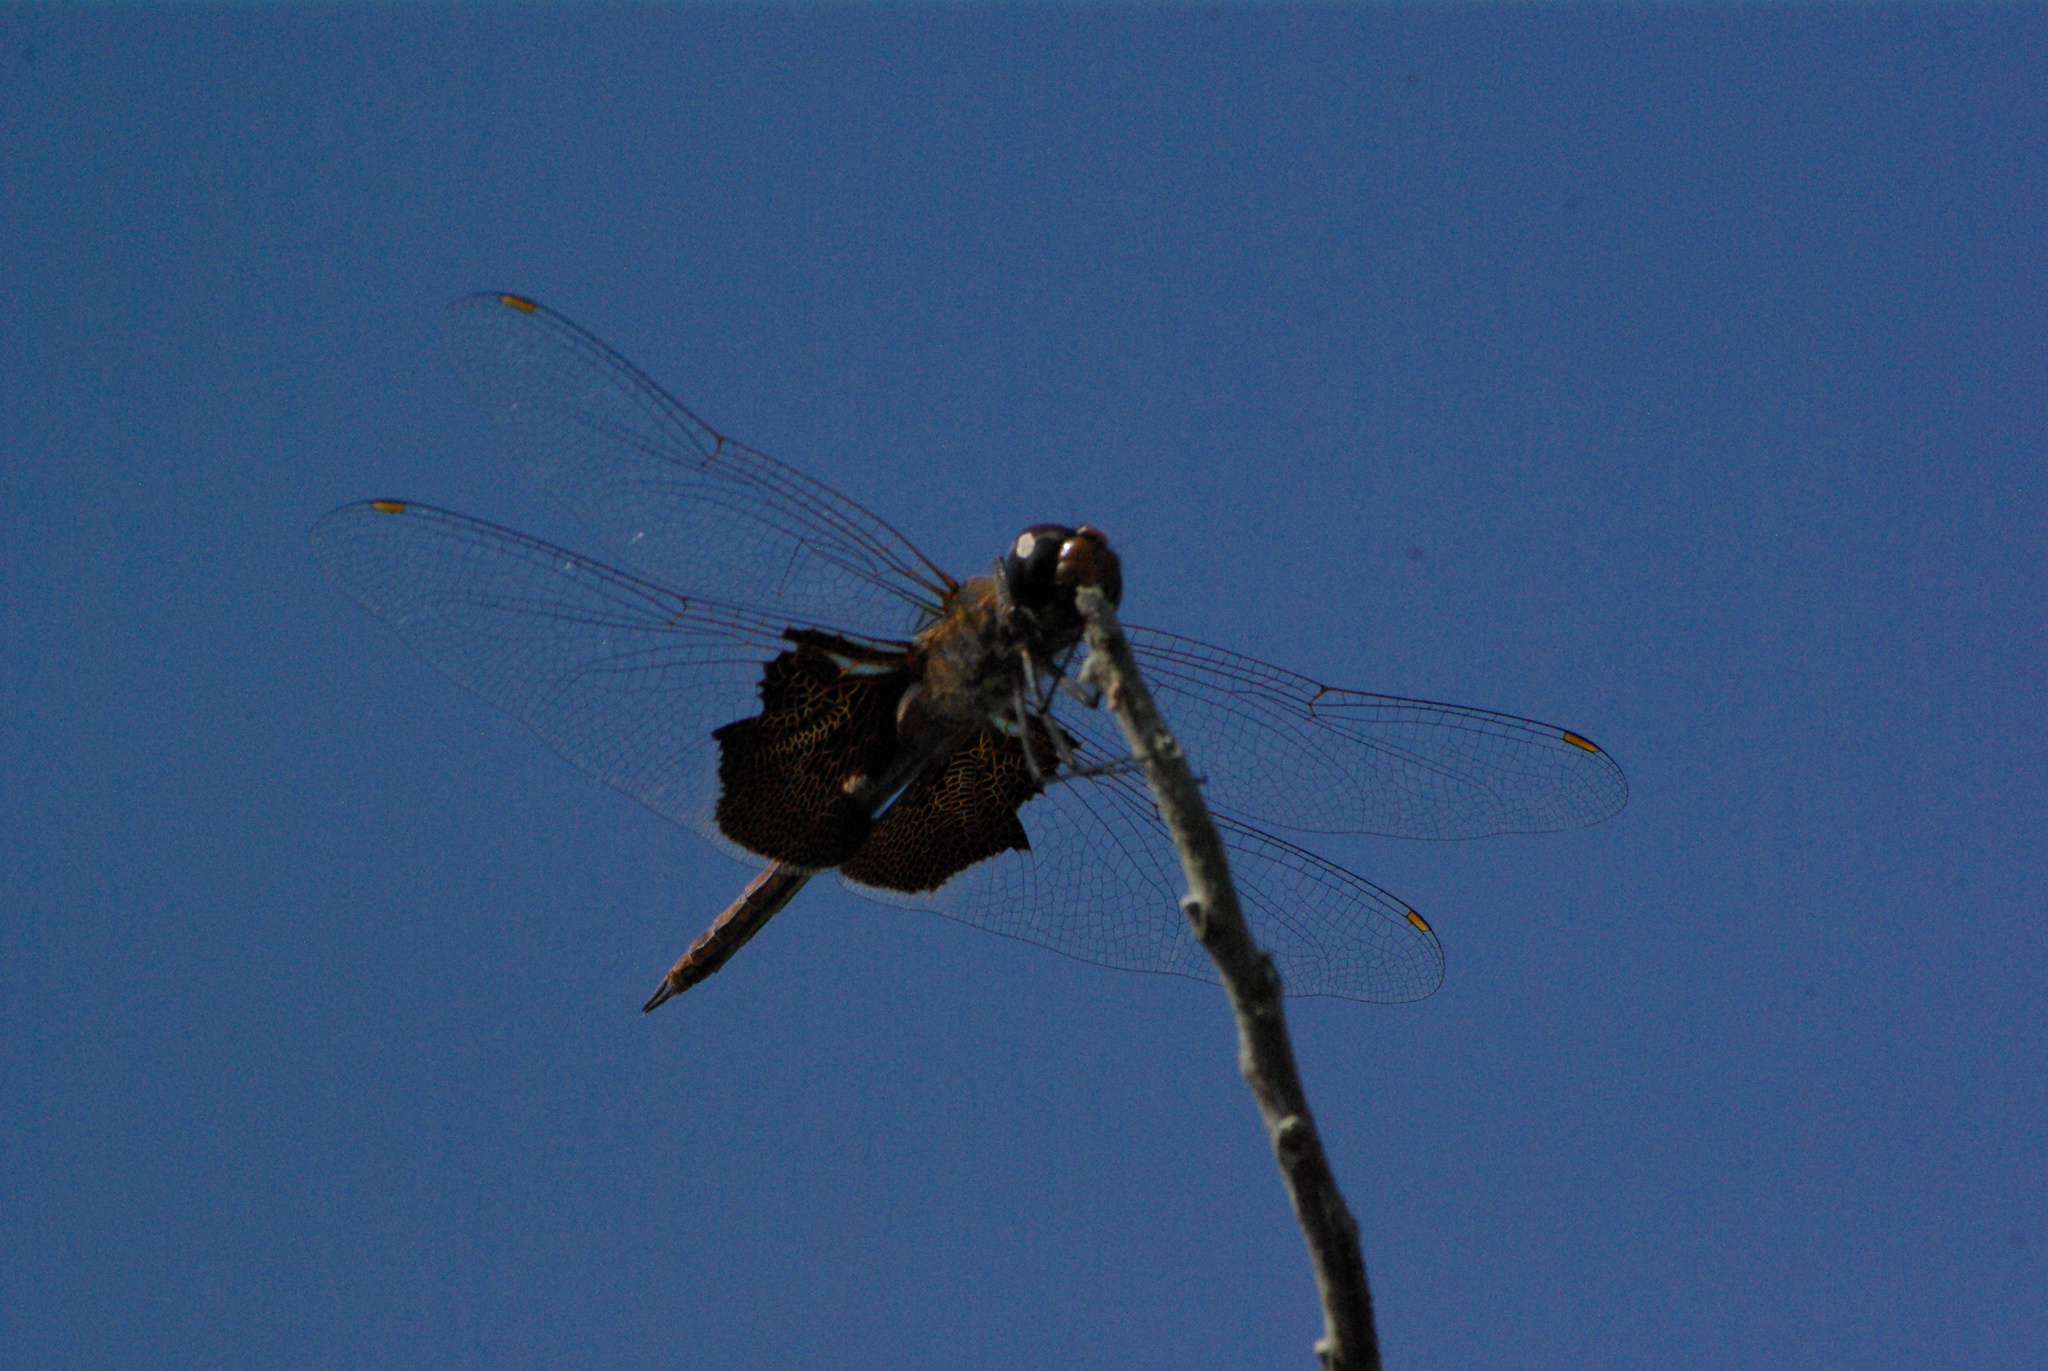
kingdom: Animalia
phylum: Arthropoda
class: Insecta
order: Odonata
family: Libellulidae
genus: Tramea
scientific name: Tramea lacerata
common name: Black saddlebags
